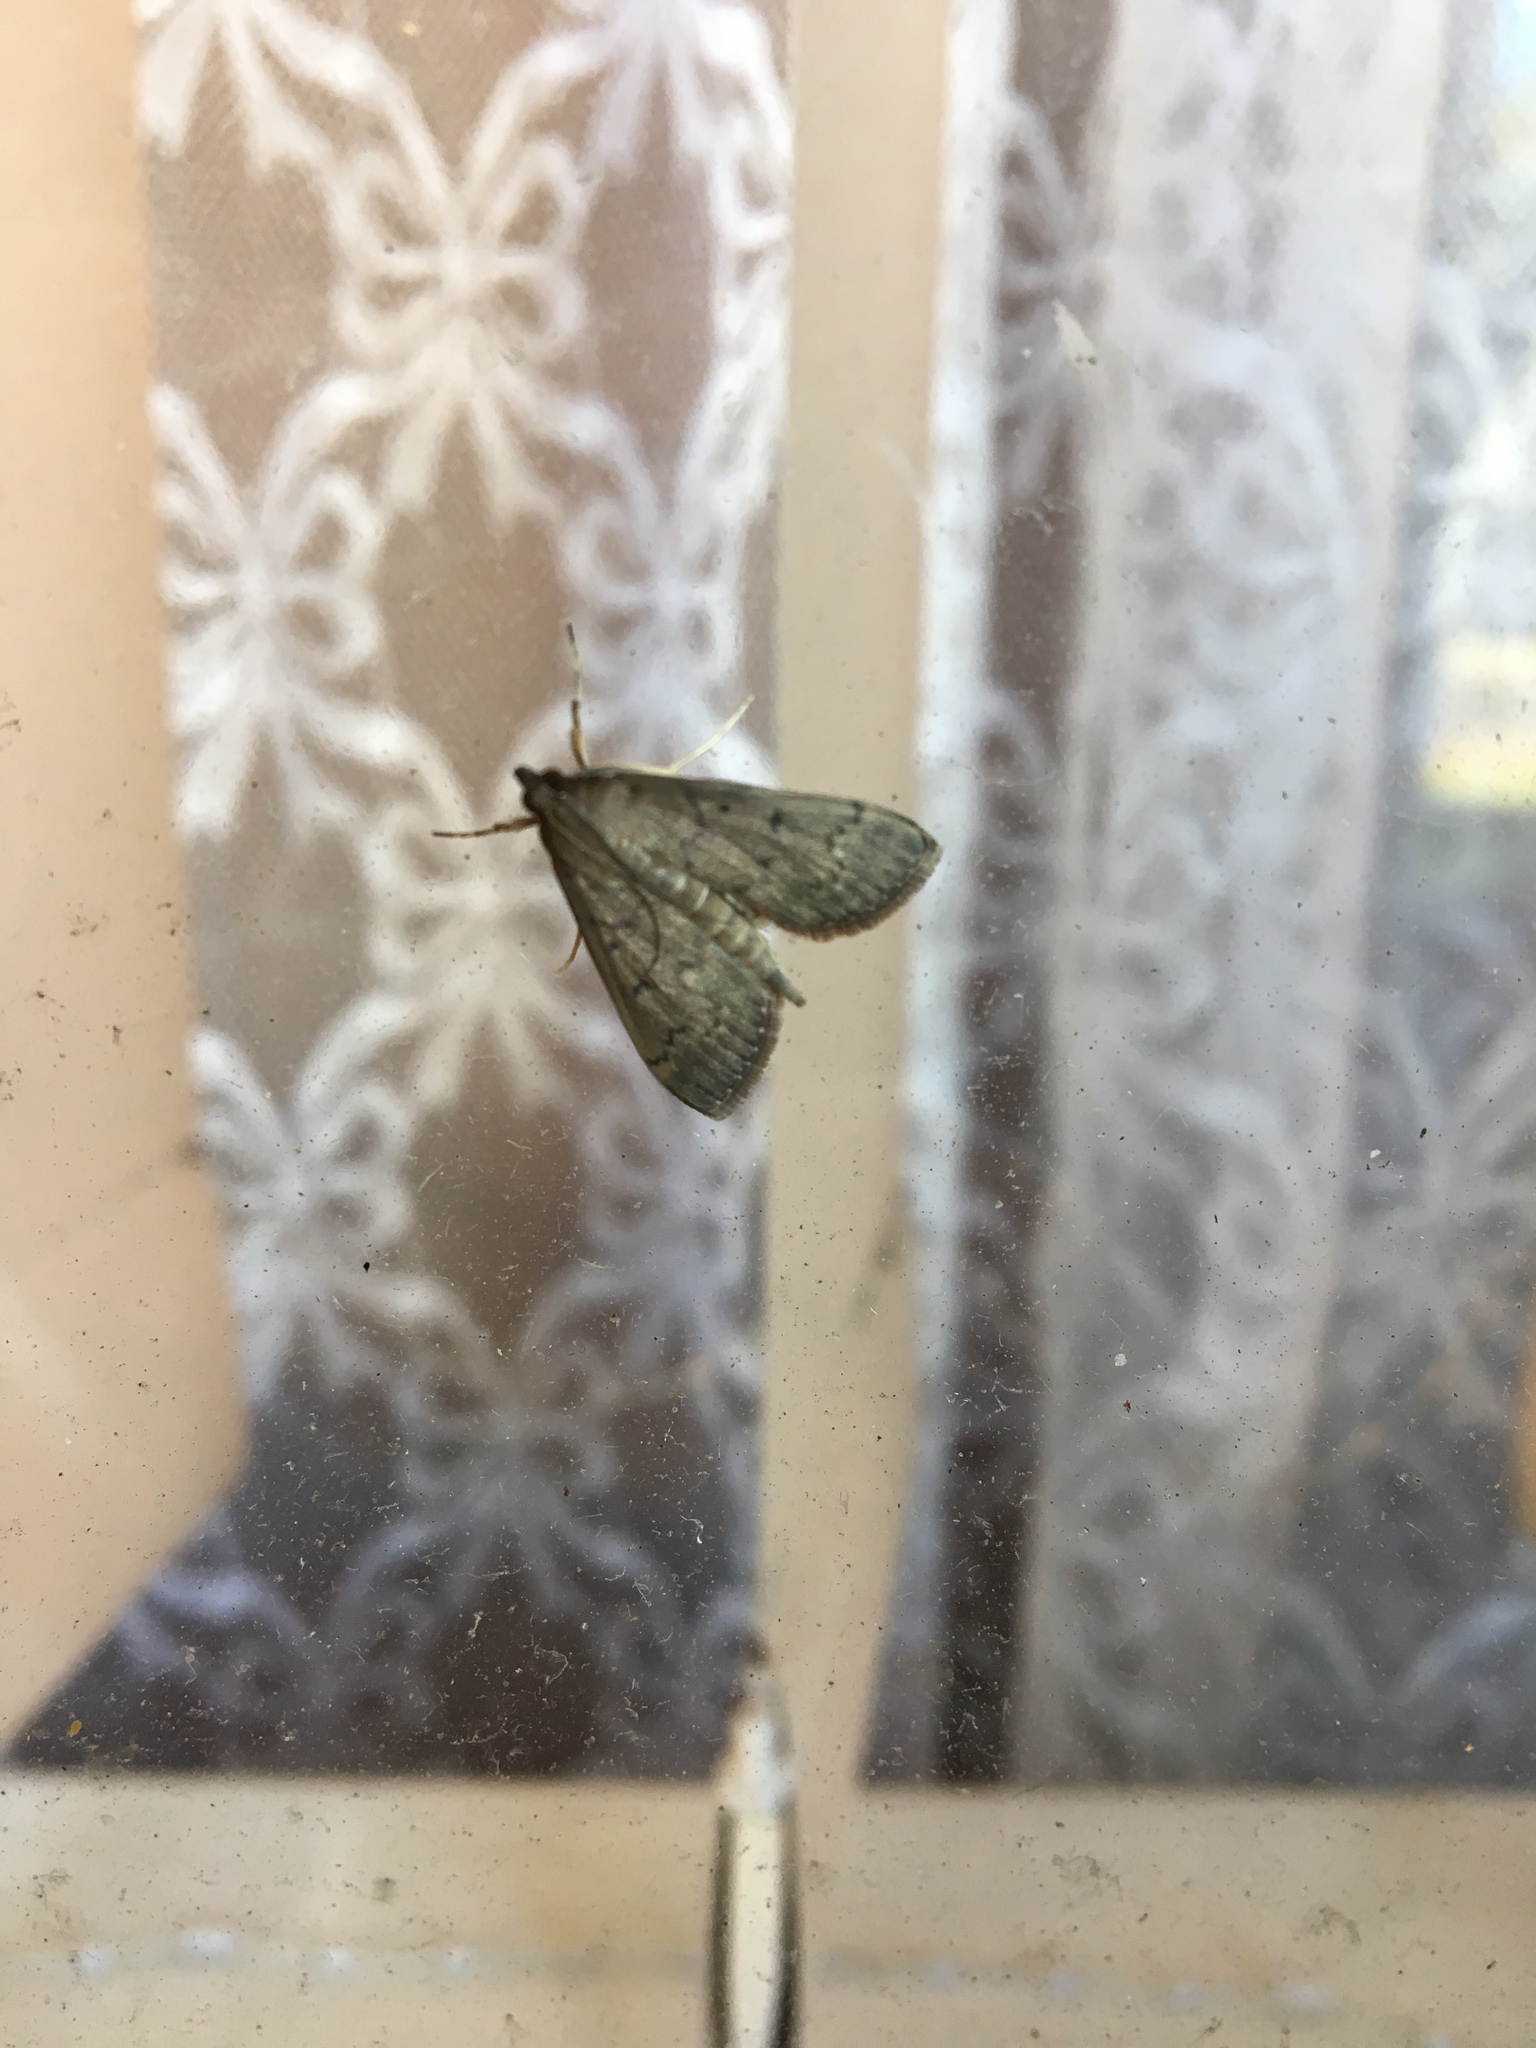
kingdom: Animalia
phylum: Arthropoda
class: Insecta
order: Lepidoptera
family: Crambidae
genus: Herpetogramma
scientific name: Herpetogramma licarsisalis
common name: Grass webworm
